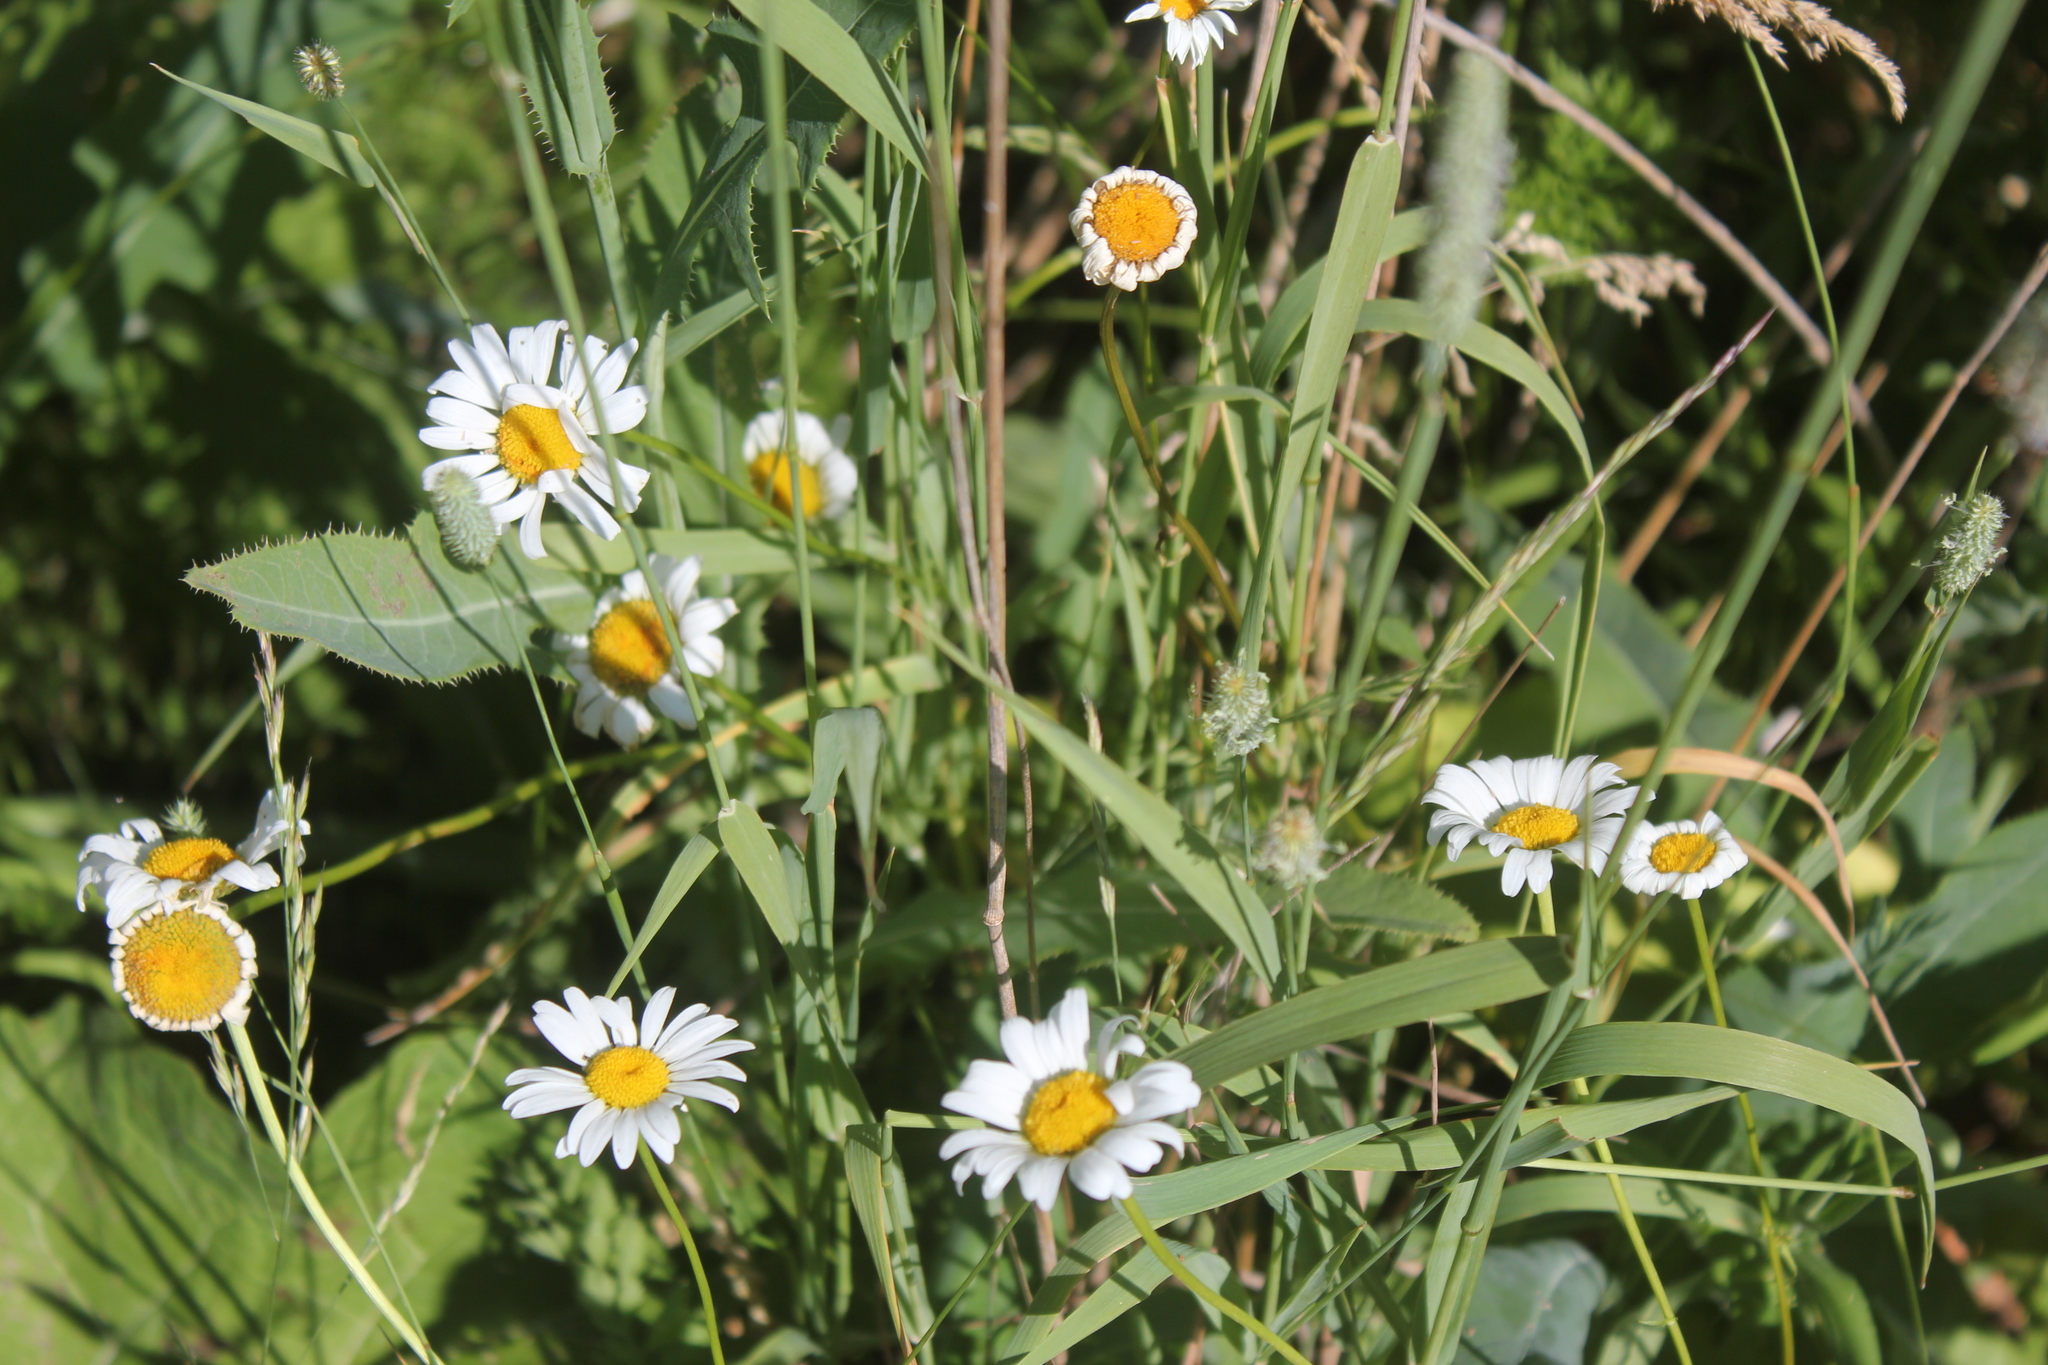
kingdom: Plantae
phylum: Tracheophyta
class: Magnoliopsida
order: Asterales
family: Asteraceae
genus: Leucanthemum
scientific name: Leucanthemum vulgare
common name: Oxeye daisy
